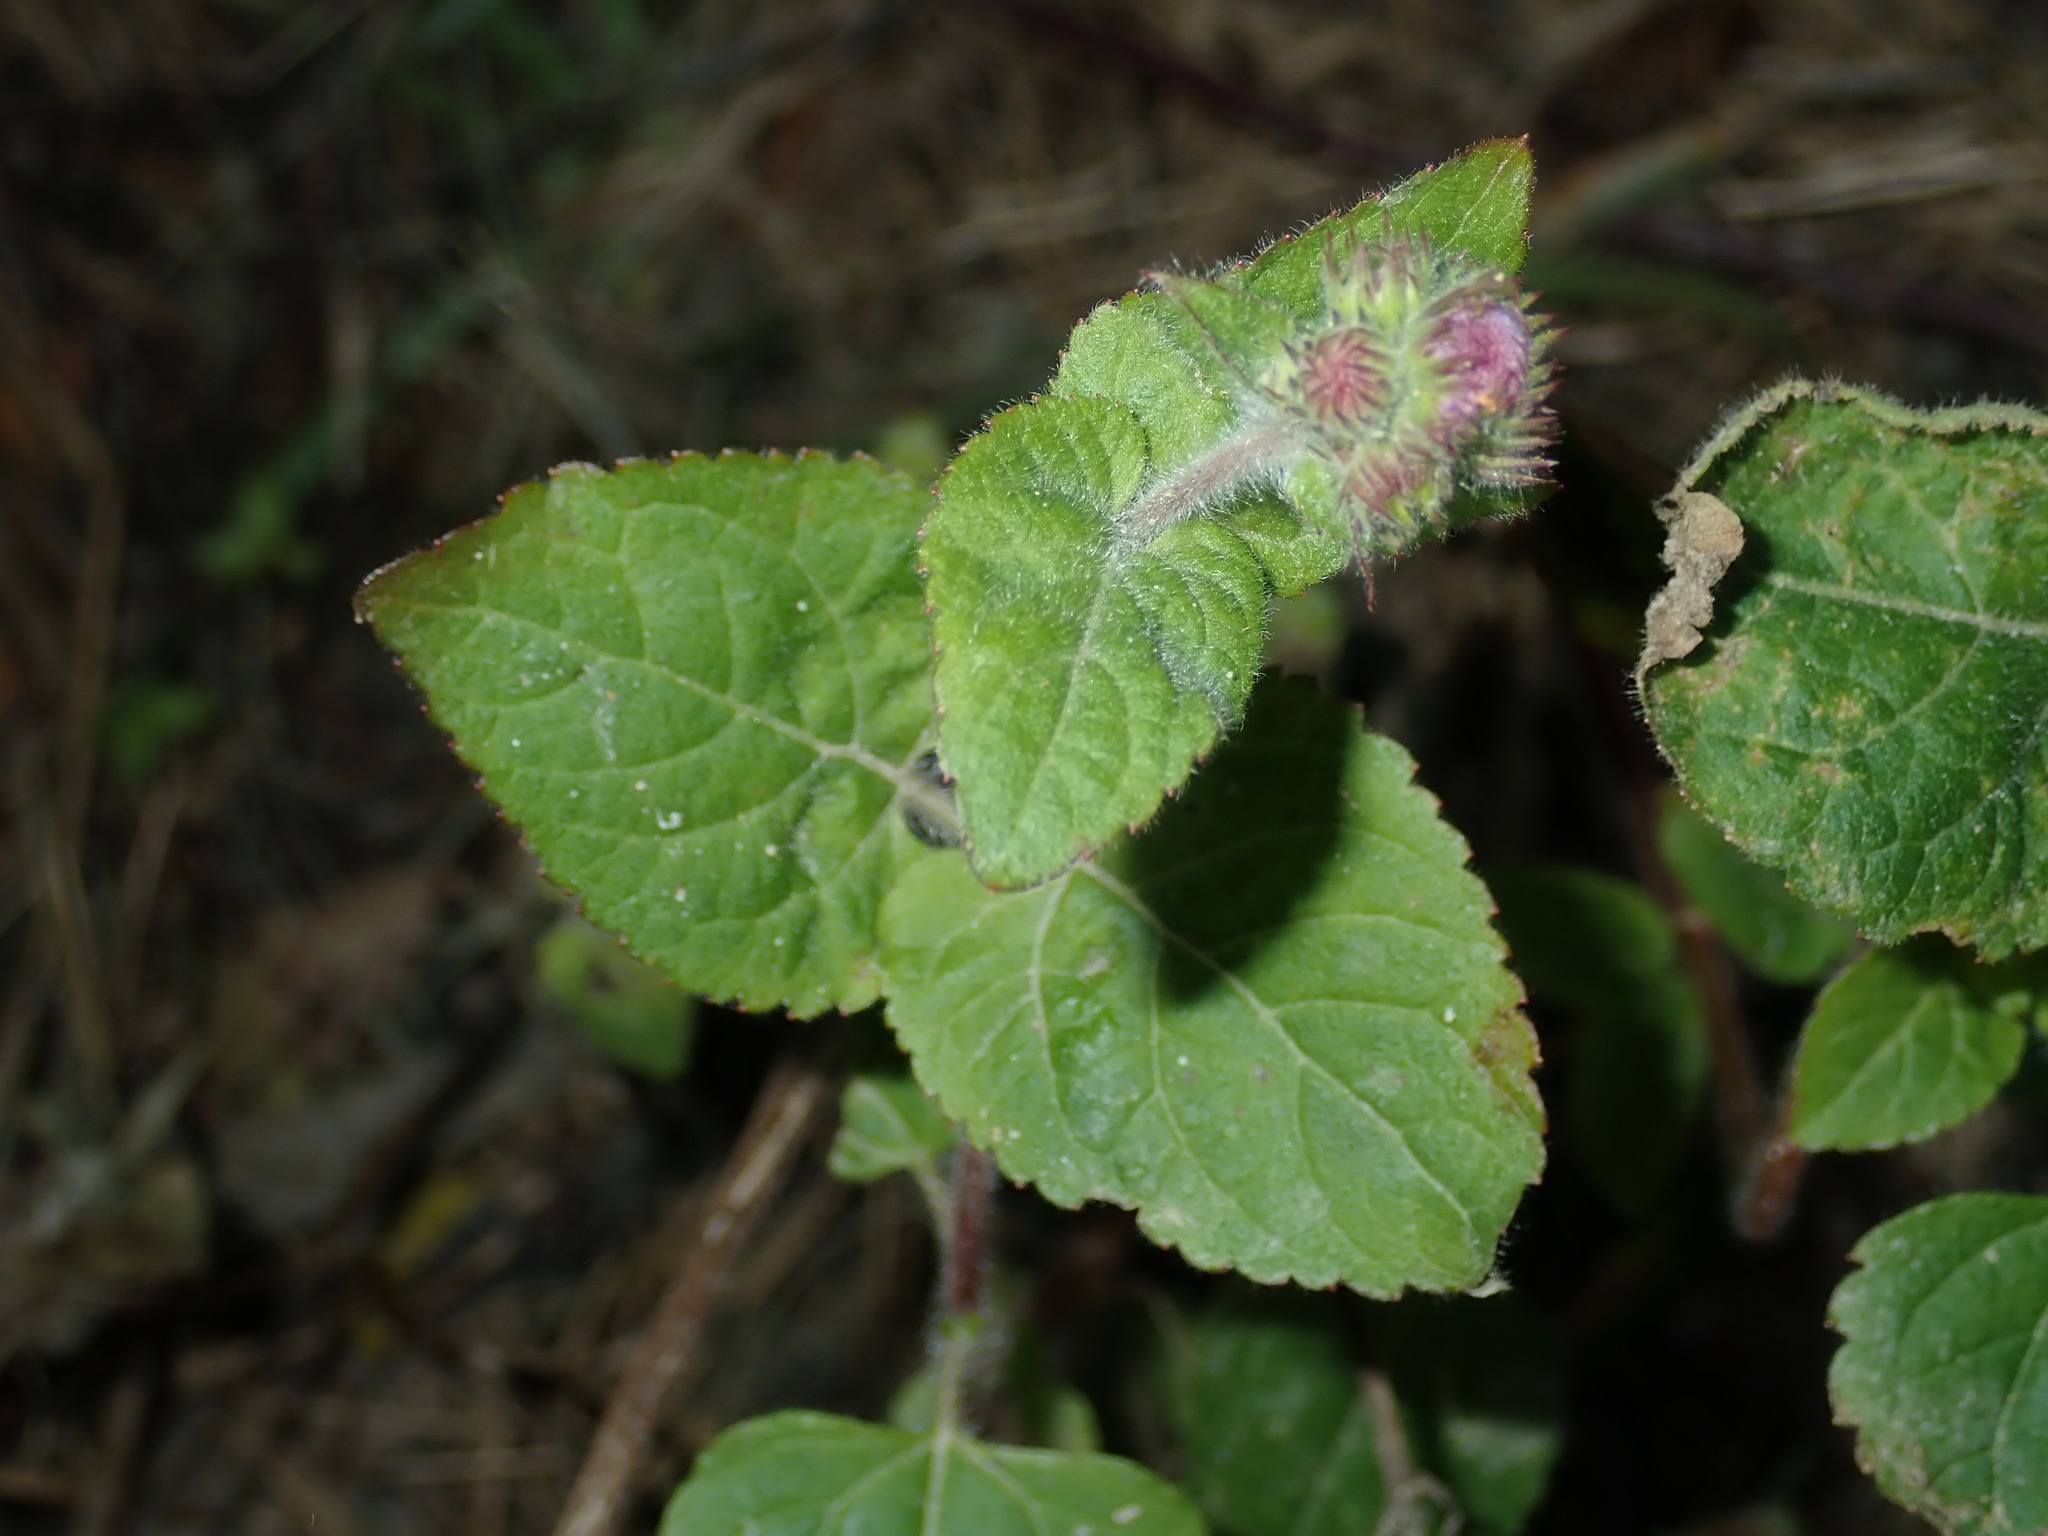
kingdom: Plantae
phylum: Tracheophyta
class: Magnoliopsida
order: Asterales
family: Asteraceae
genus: Ageratum
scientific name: Ageratum houstonianum
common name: Bluemink
